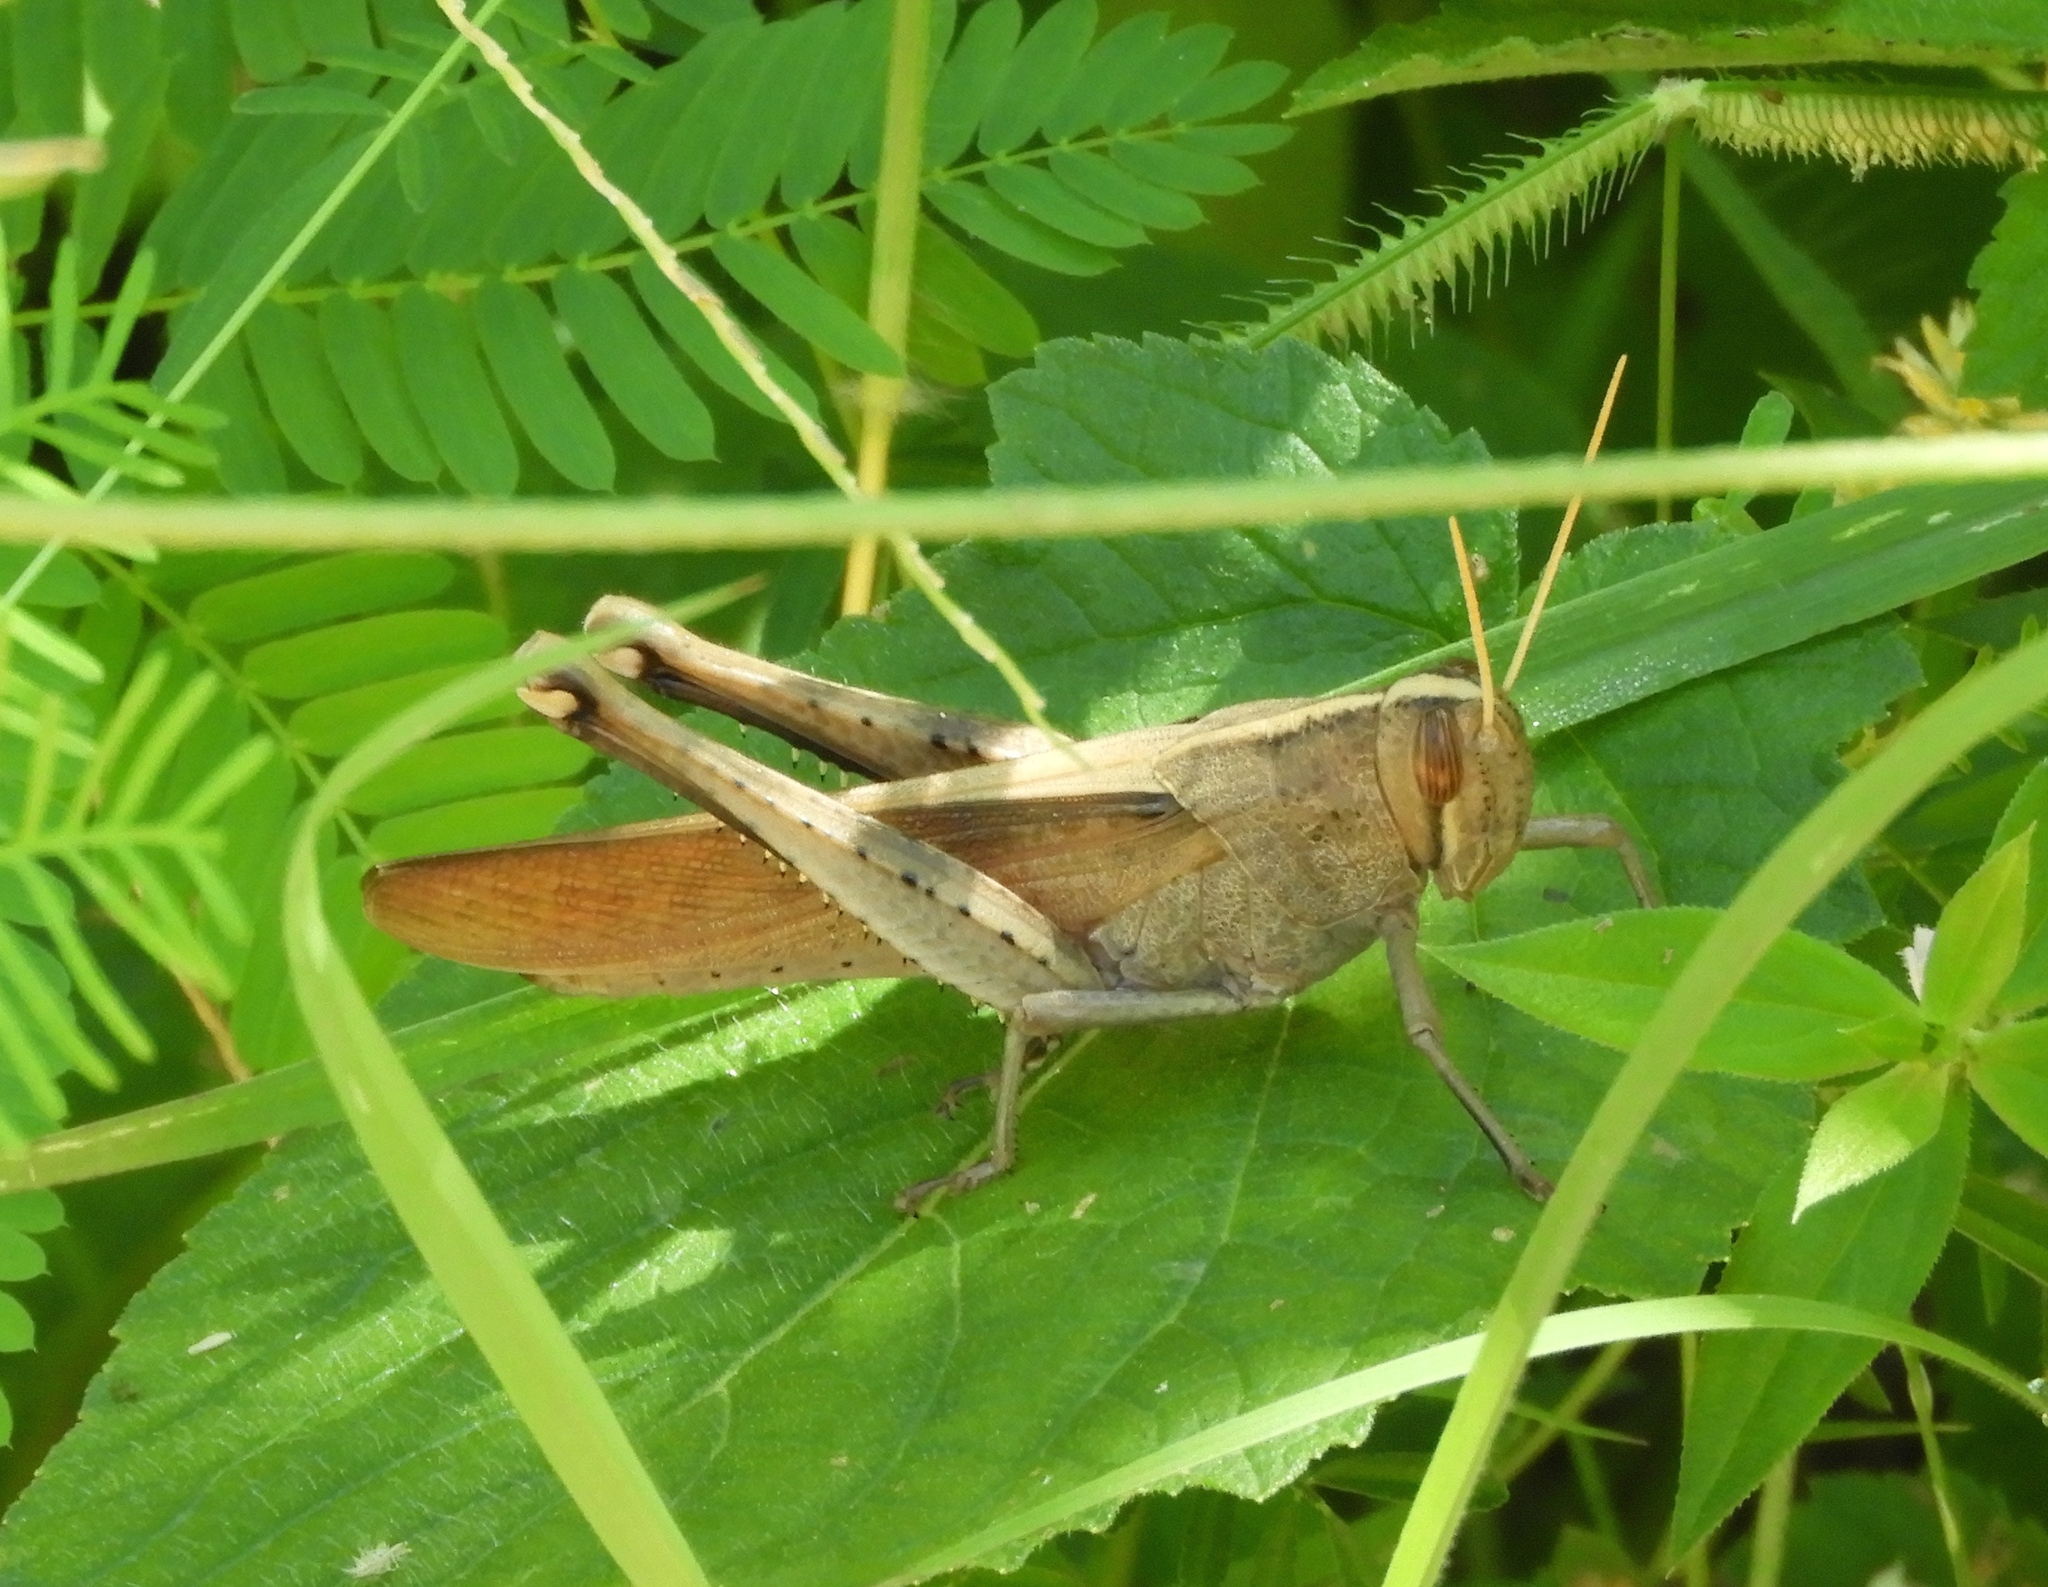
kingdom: Animalia
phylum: Arthropoda
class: Insecta
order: Orthoptera
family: Acrididae
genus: Schistocerca
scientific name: Schistocerca camerata
